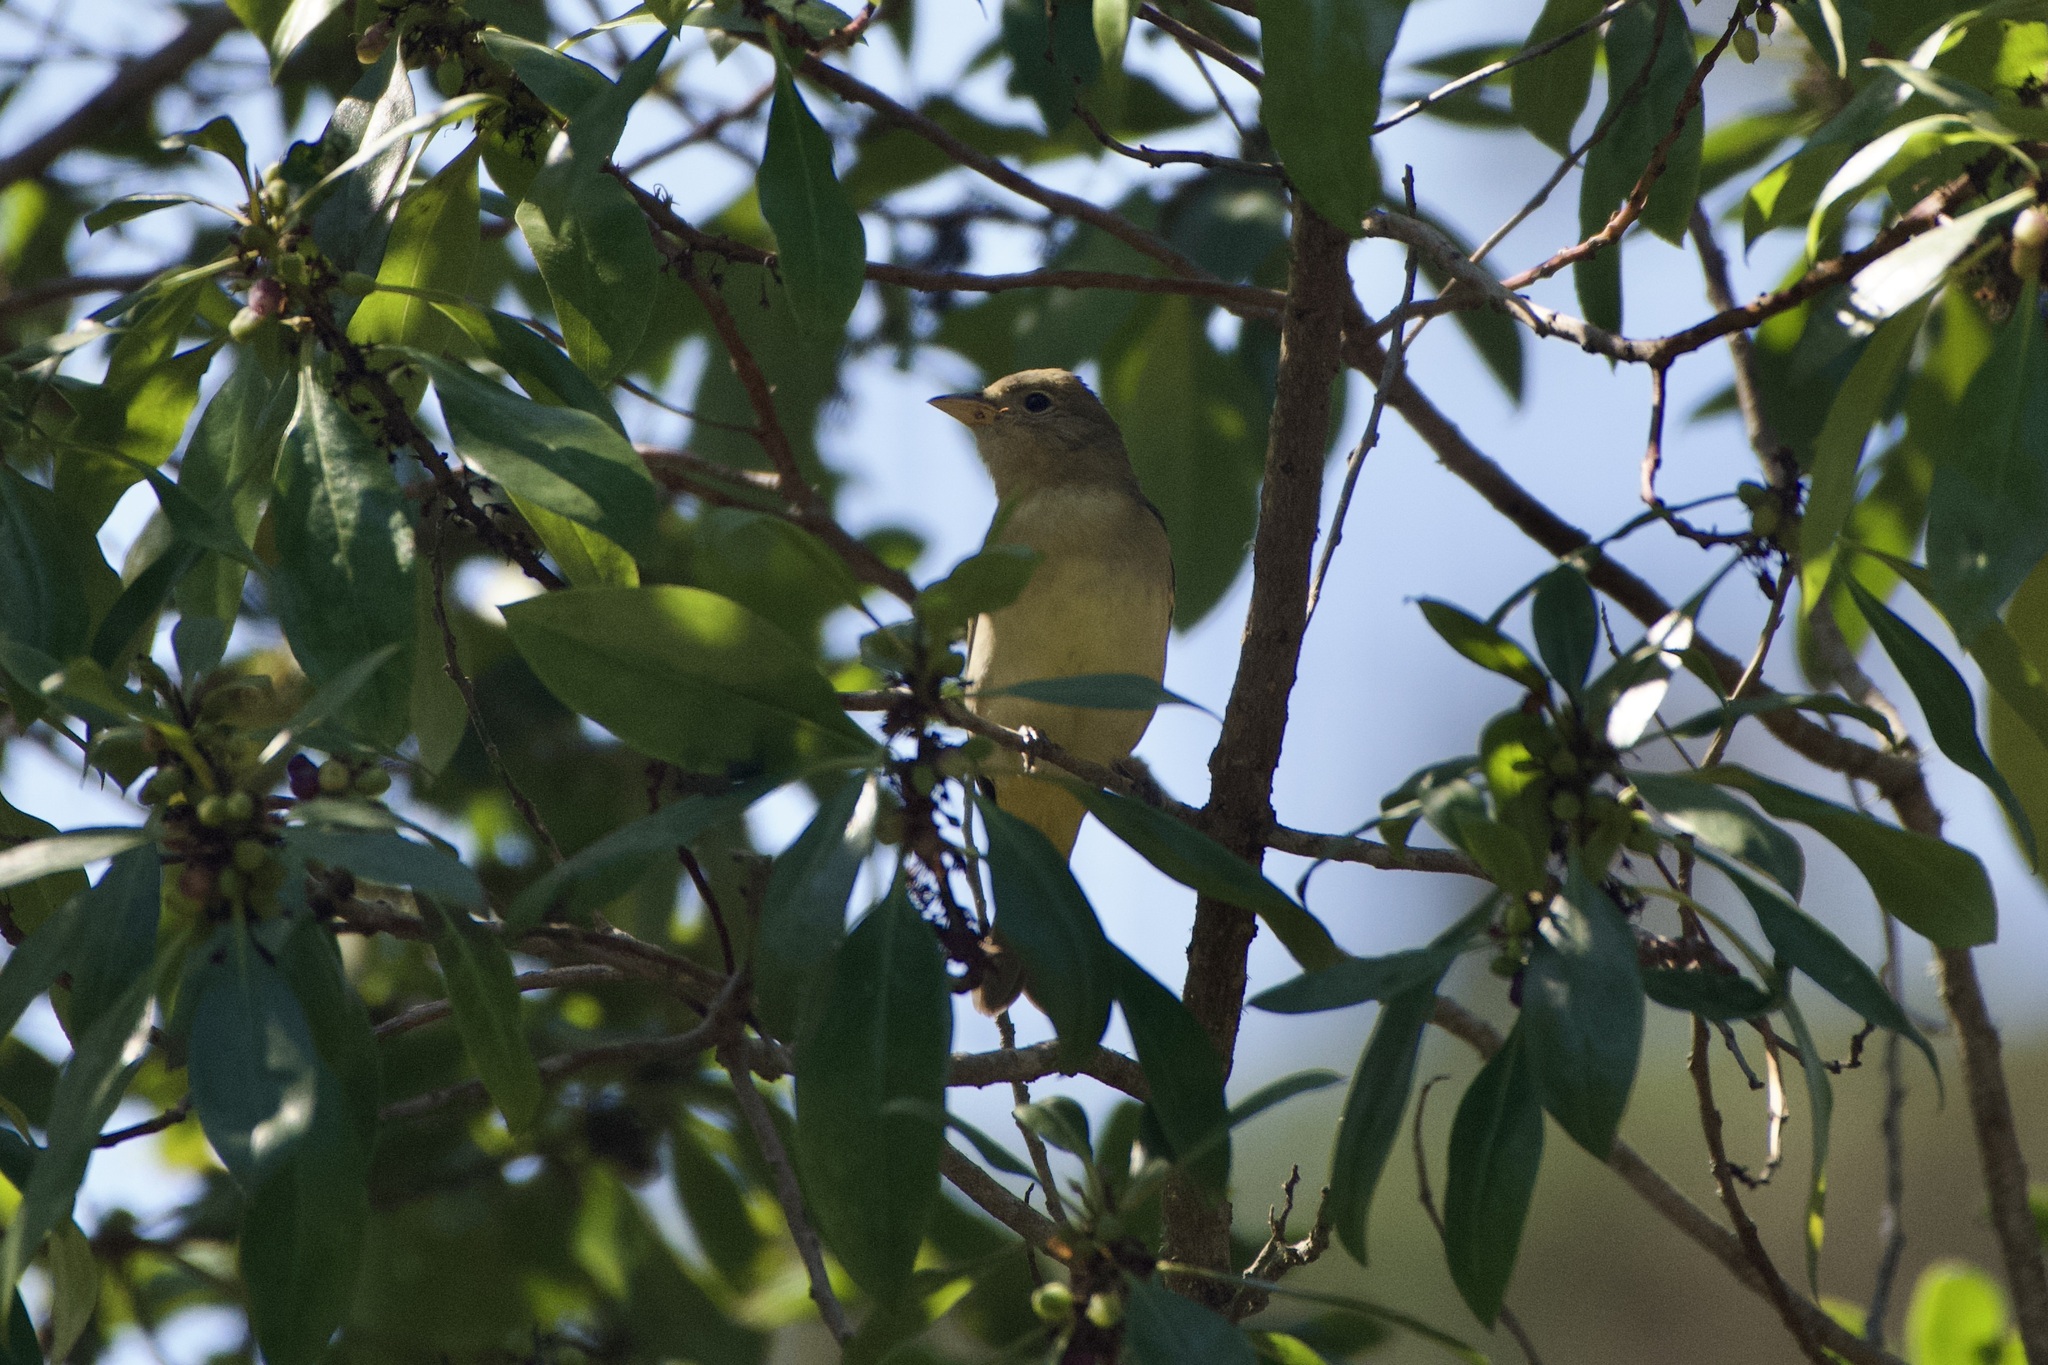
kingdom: Animalia
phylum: Chordata
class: Aves
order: Passeriformes
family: Cardinalidae
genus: Piranga
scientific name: Piranga ludoviciana
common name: Western tanager
